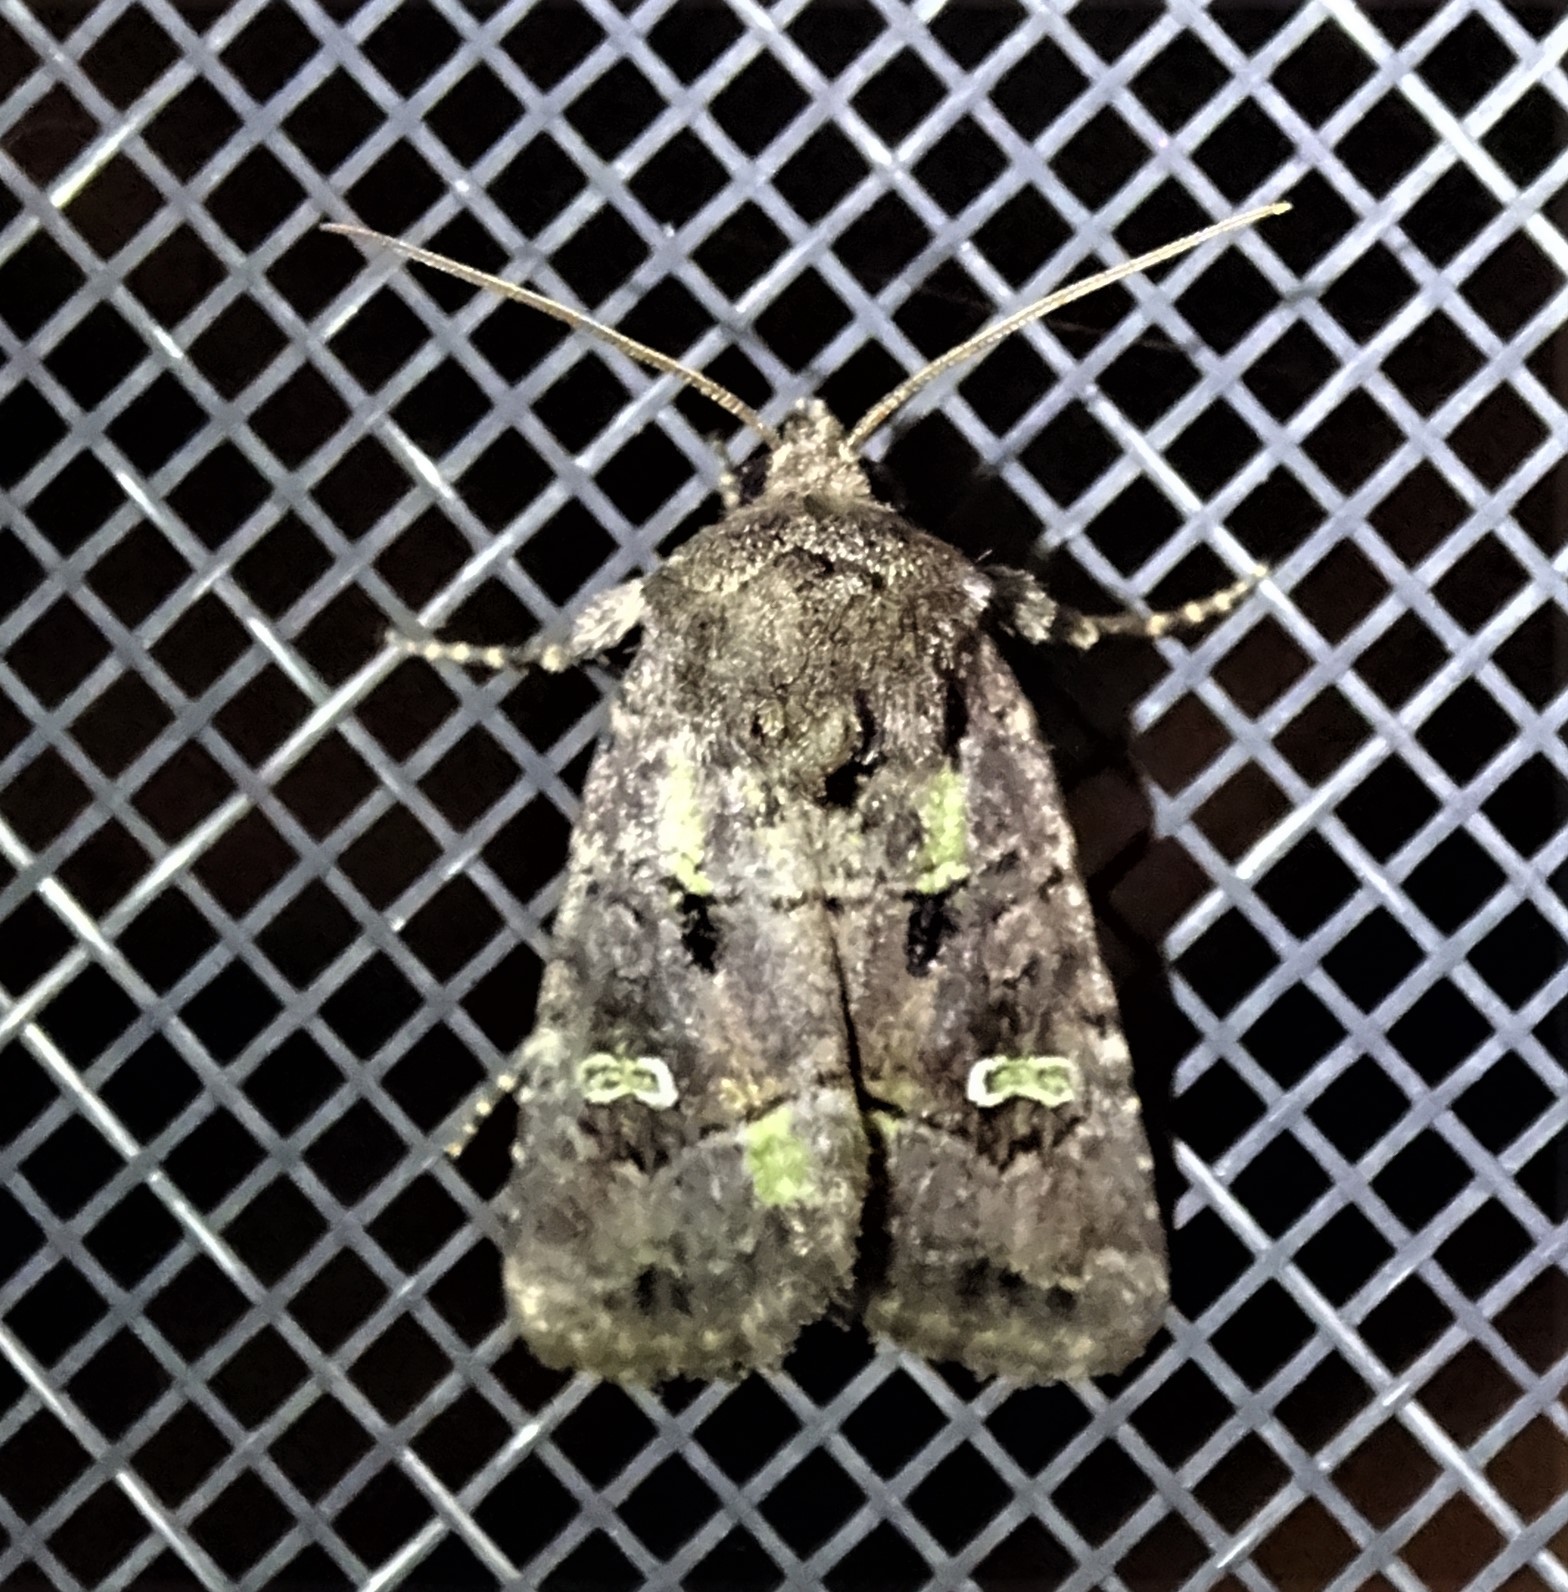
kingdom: Animalia
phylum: Arthropoda
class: Insecta
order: Lepidoptera
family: Noctuidae
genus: Lacinipolia
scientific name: Lacinipolia renigera
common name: Kidney-spotted minor
